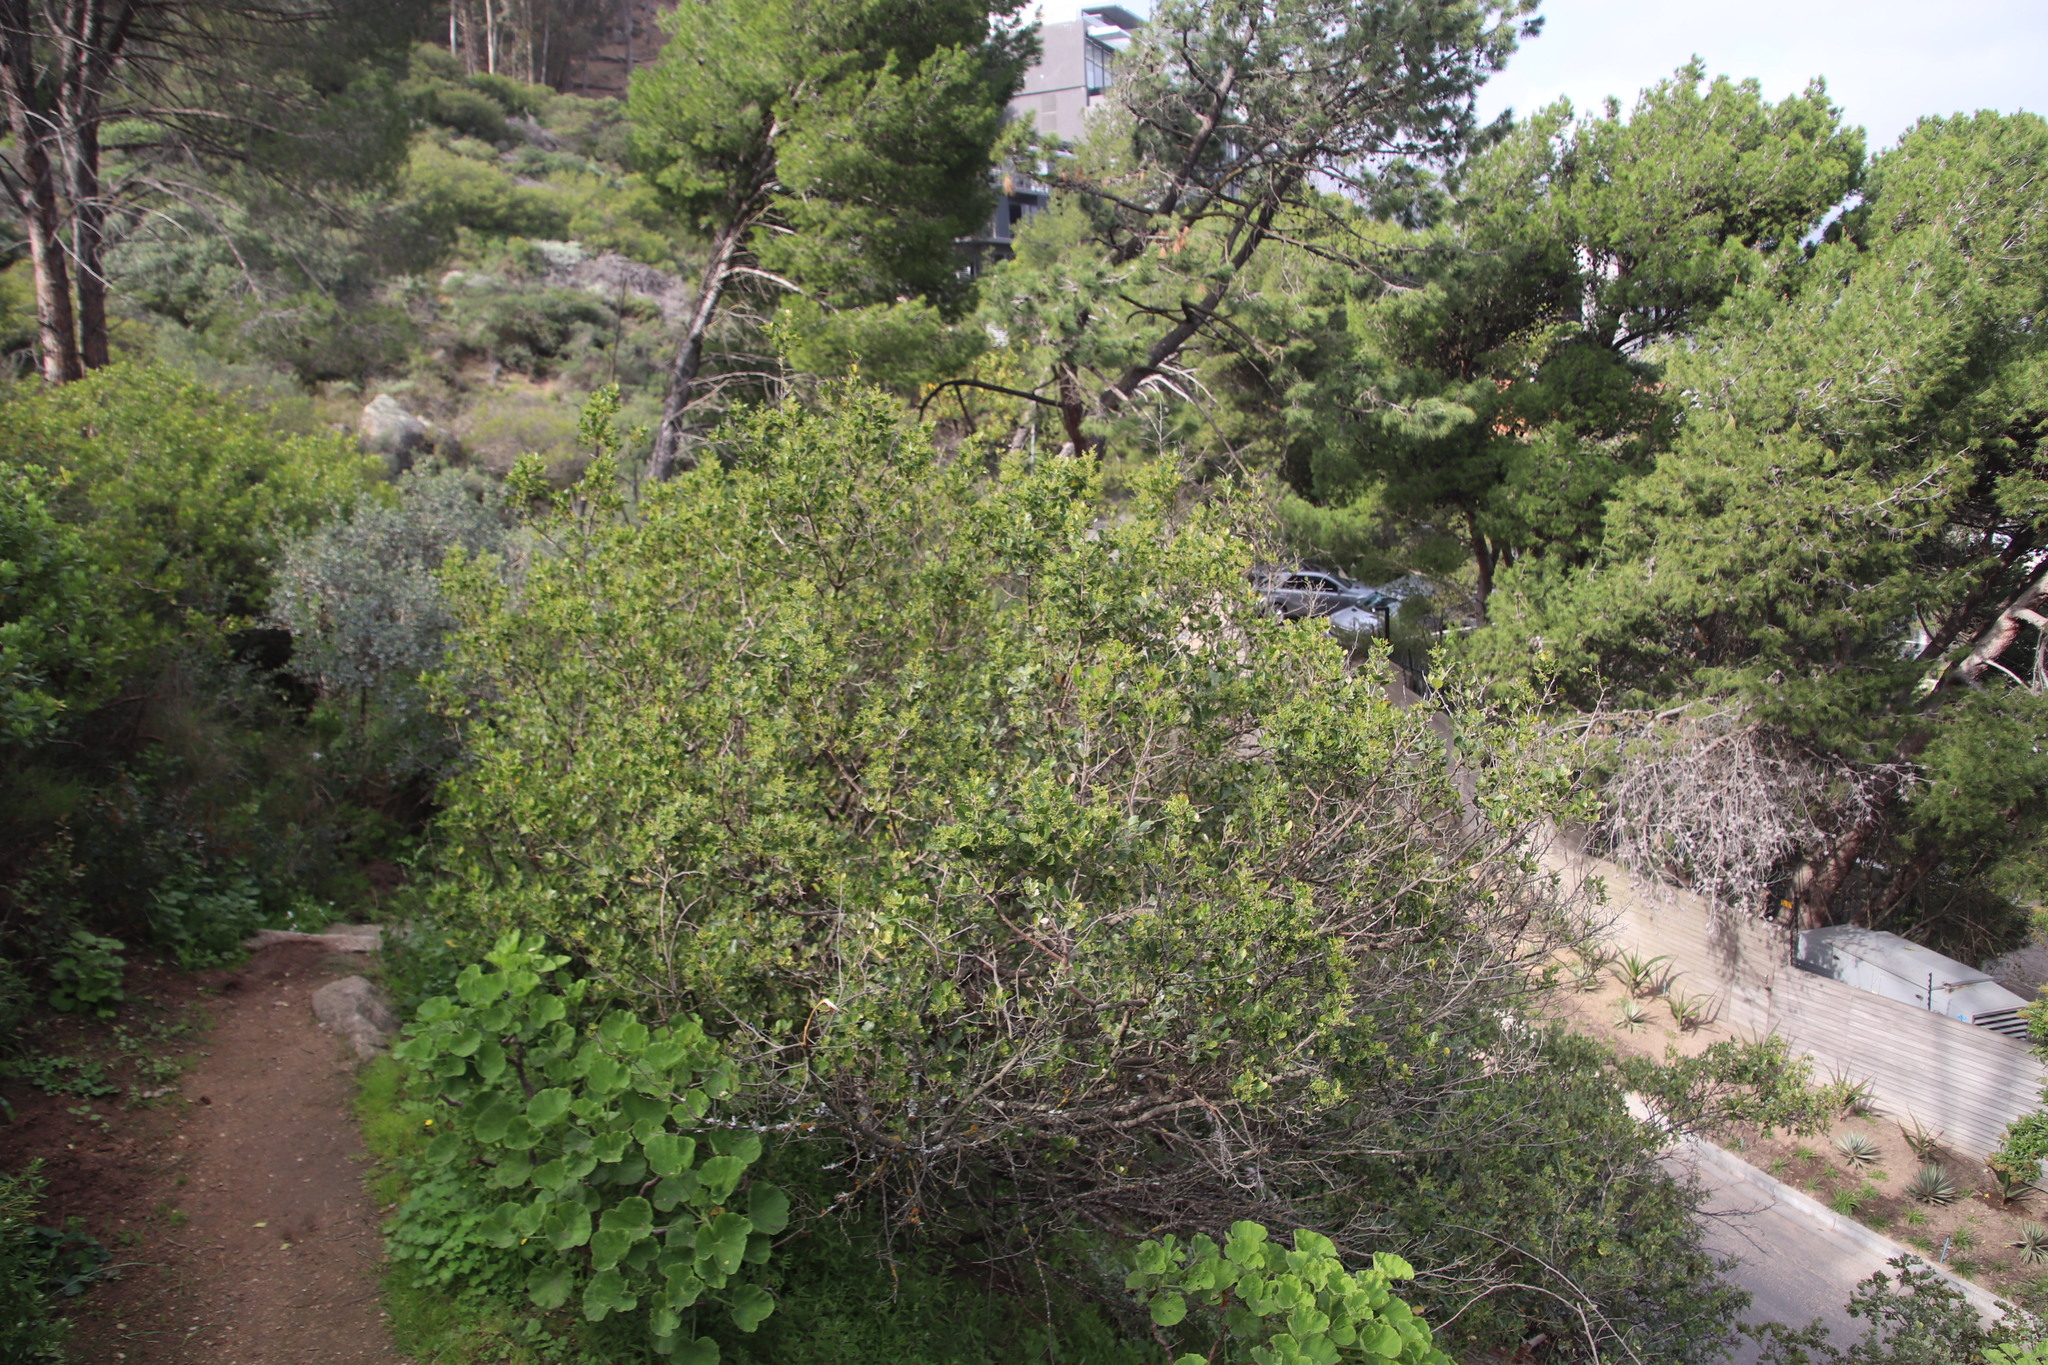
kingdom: Plantae
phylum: Tracheophyta
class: Magnoliopsida
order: Sapindales
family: Anacardiaceae
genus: Searsia
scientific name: Searsia lucida
